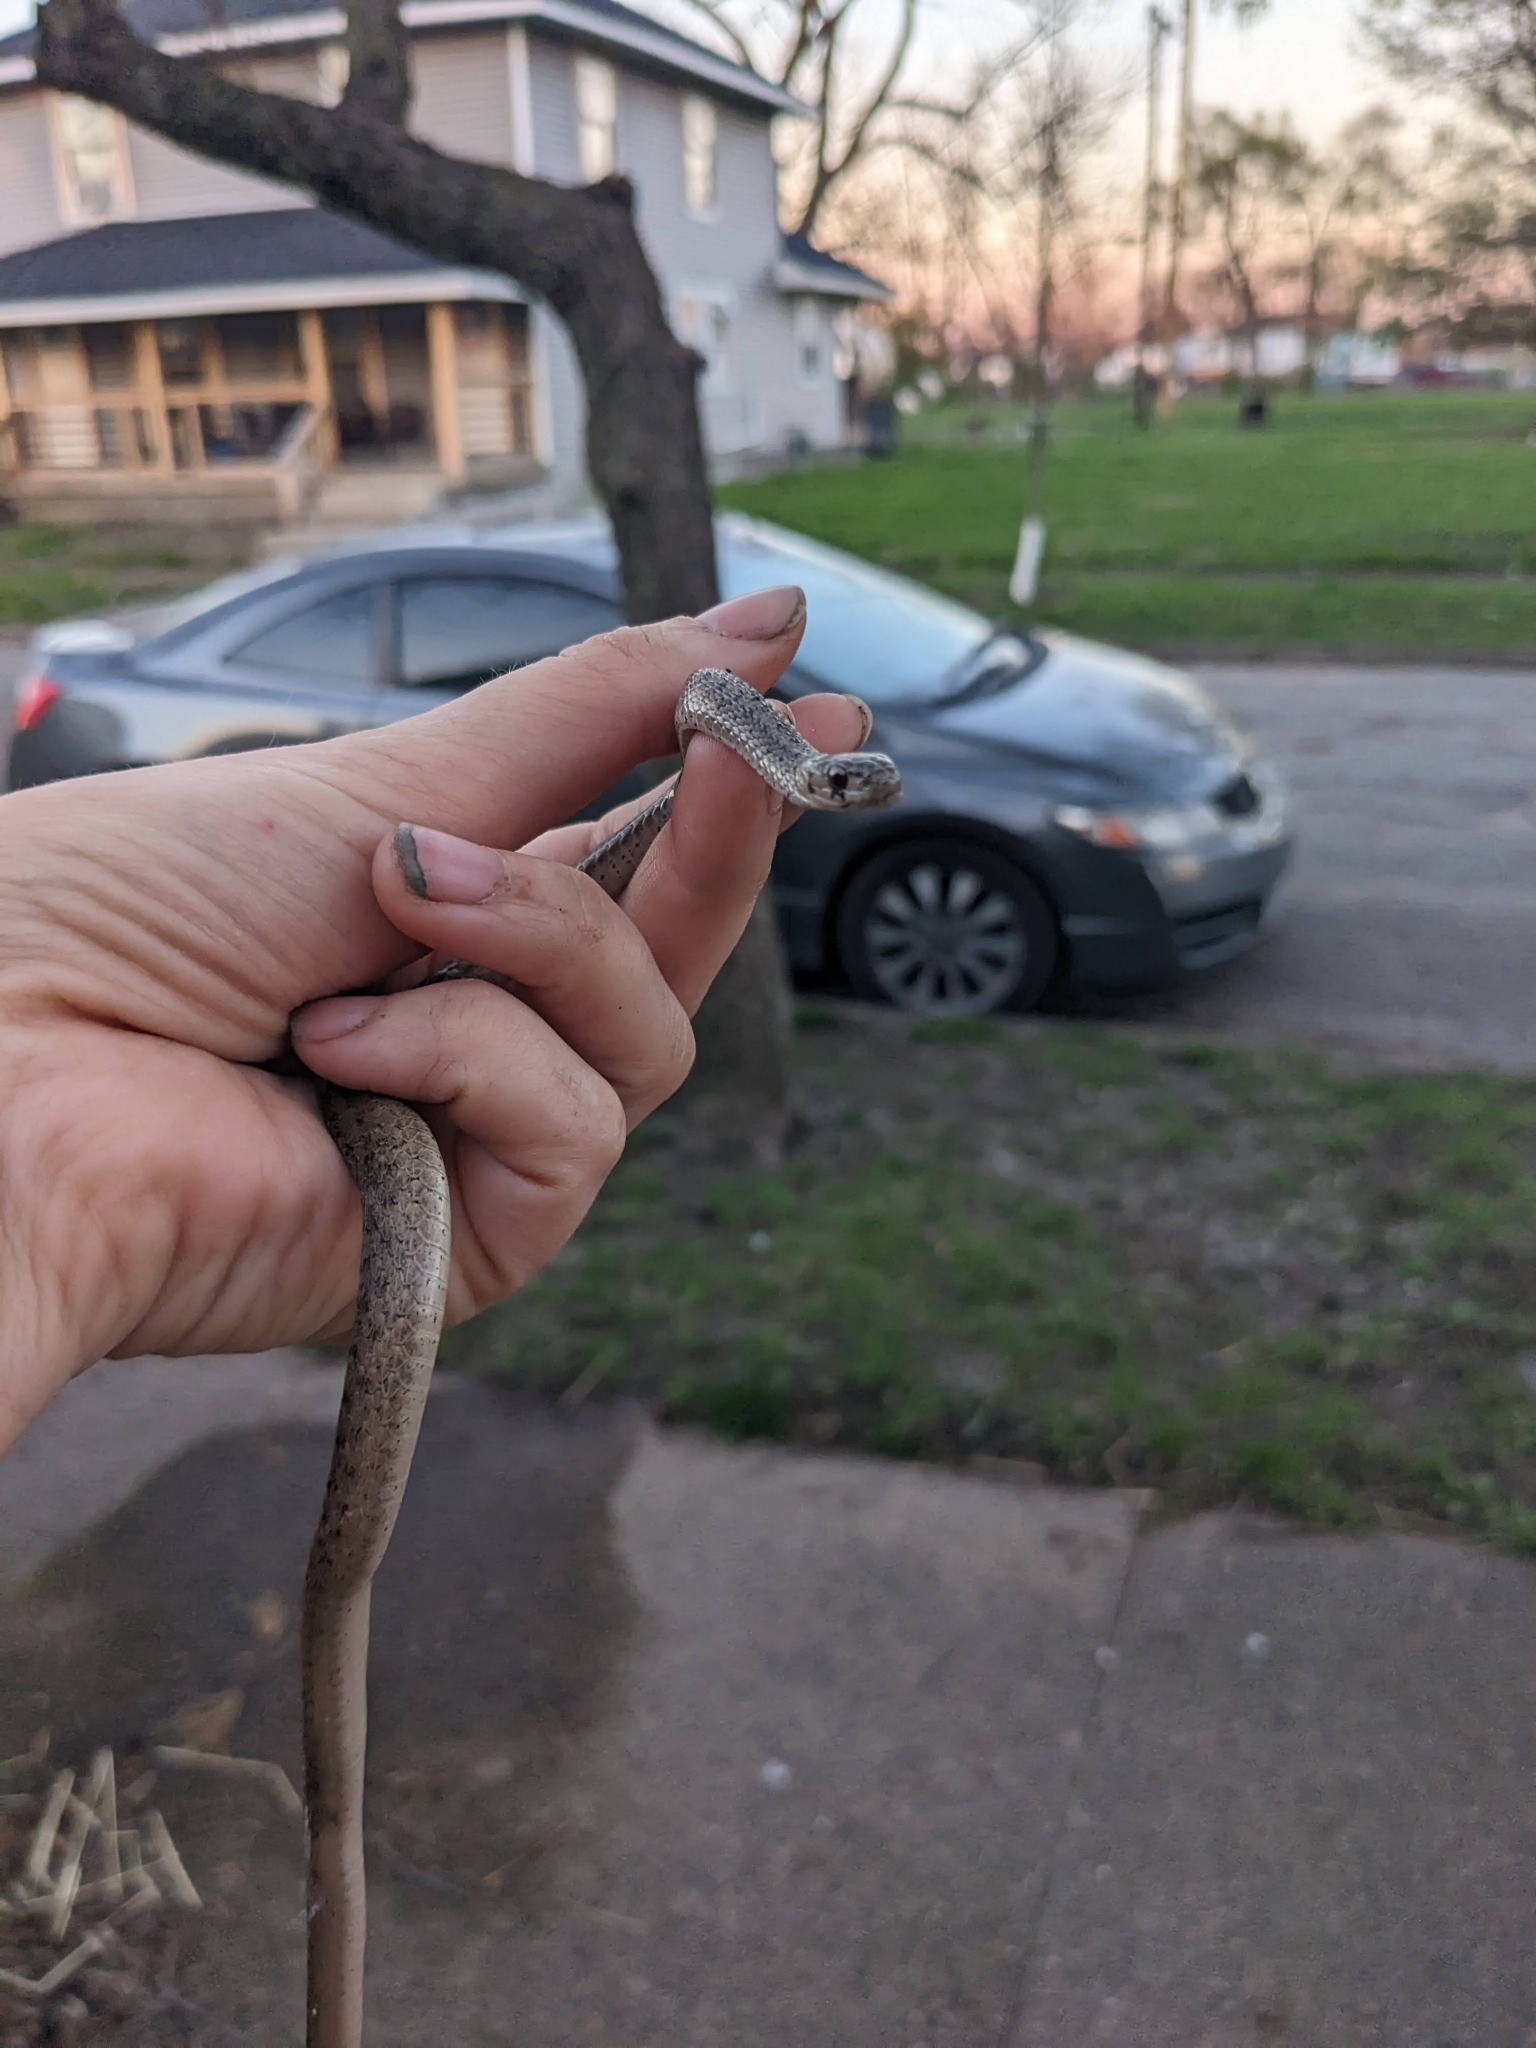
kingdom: Animalia
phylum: Chordata
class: Squamata
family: Colubridae
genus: Storeria
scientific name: Storeria dekayi
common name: (dekay’s) brown snake
